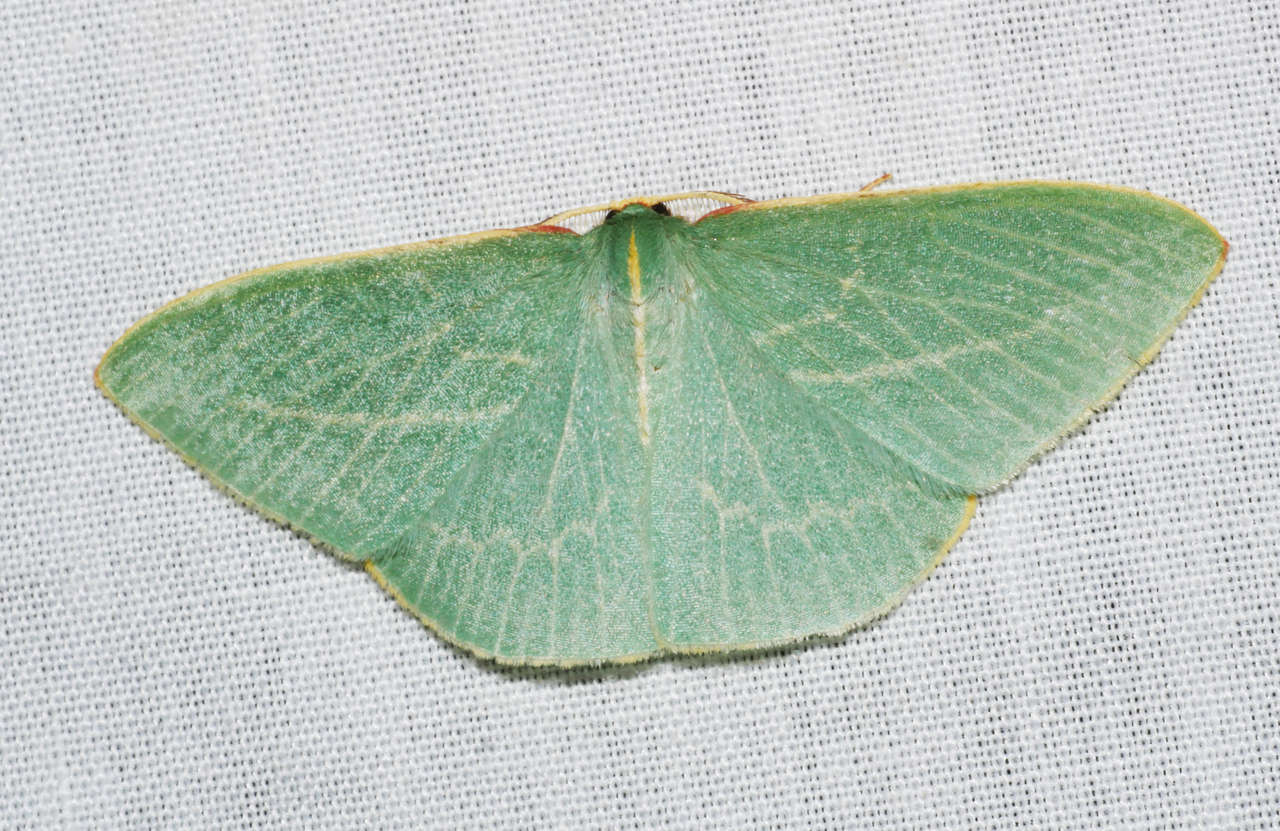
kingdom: Animalia
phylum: Arthropoda
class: Insecta
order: Lepidoptera
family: Geometridae
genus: Chlorocoma
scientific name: Chlorocoma carenaria
